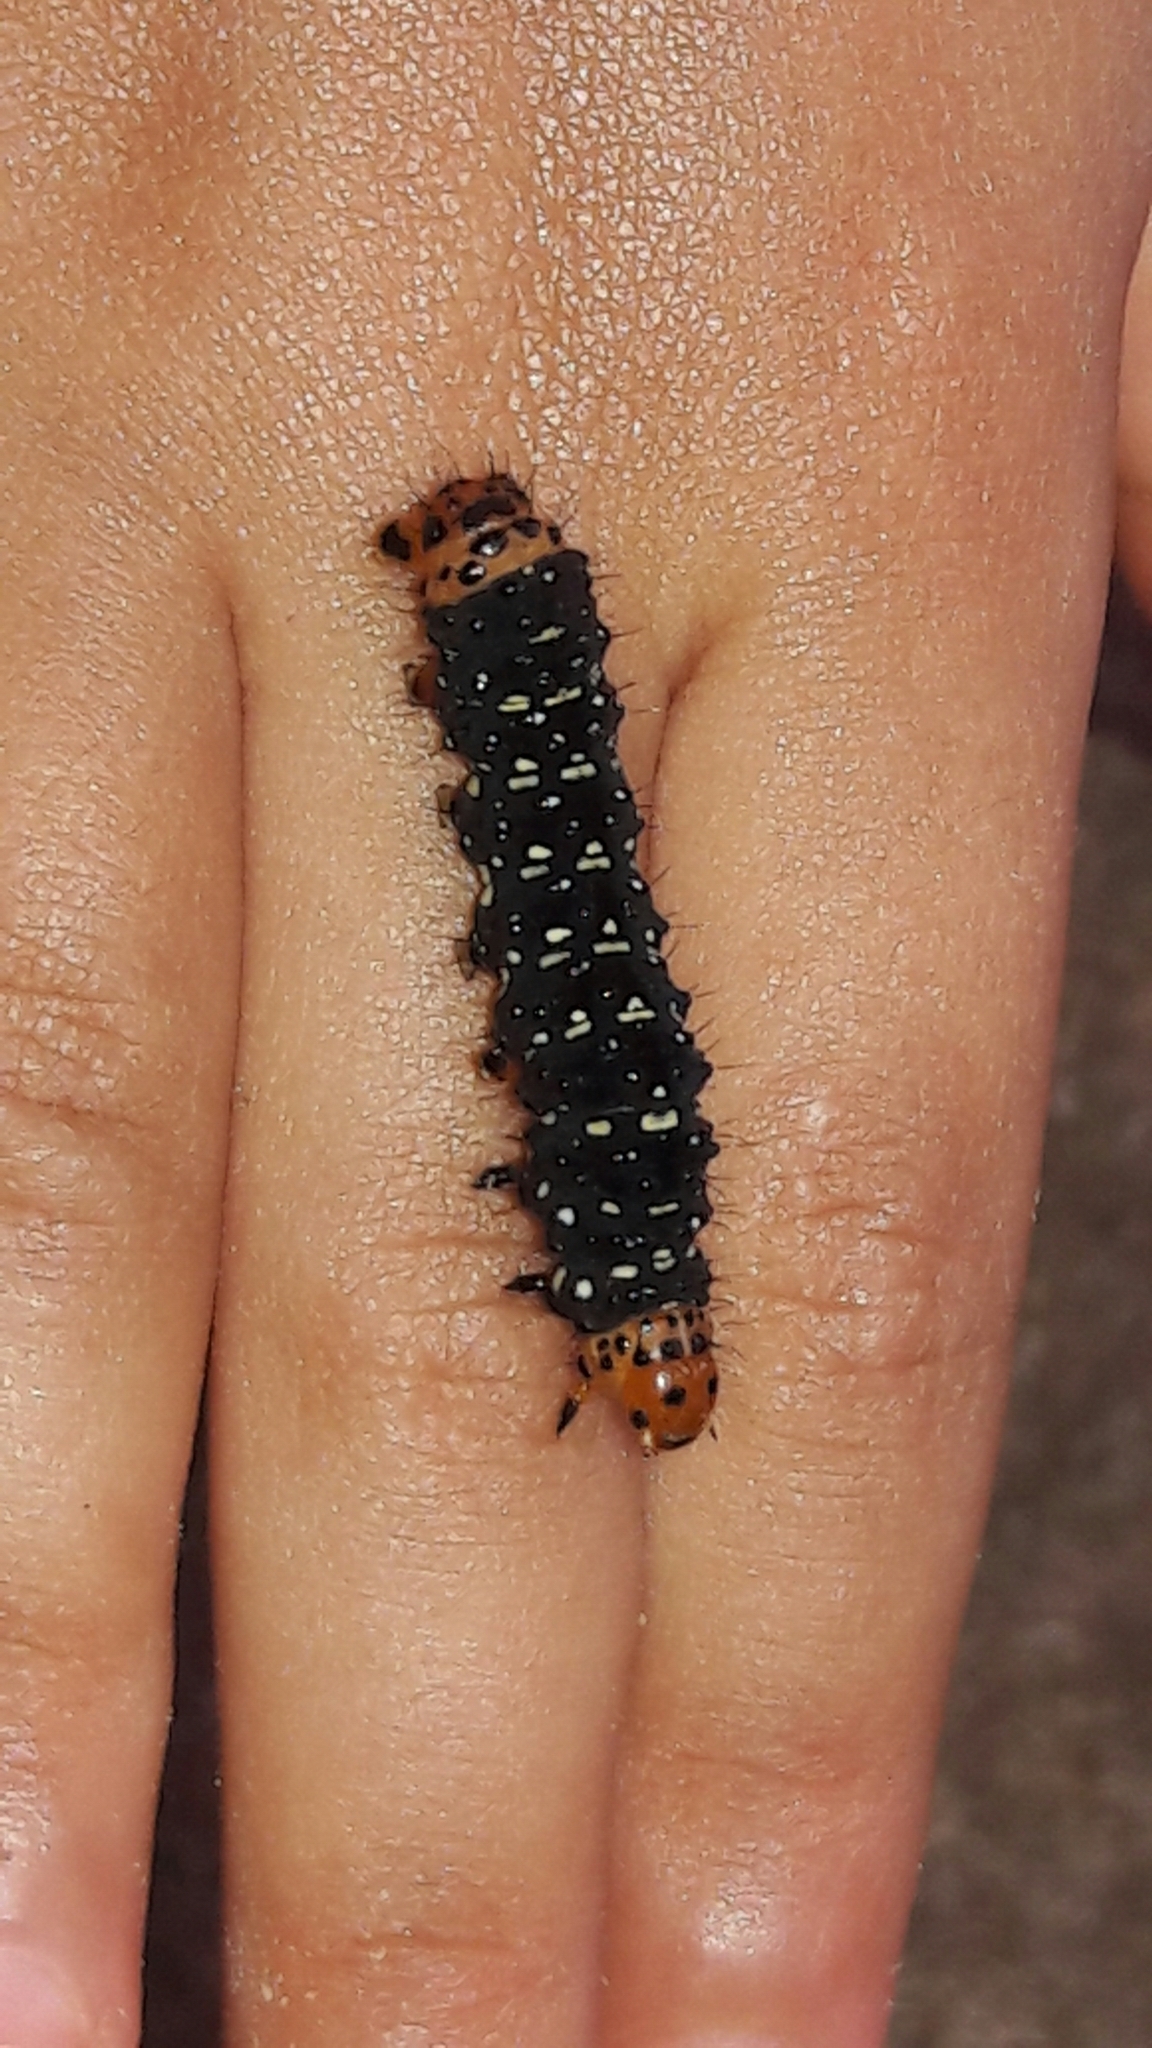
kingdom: Animalia
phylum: Arthropoda
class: Insecta
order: Lepidoptera
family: Noctuidae
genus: Xanthopastis
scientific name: Xanthopastis timais
